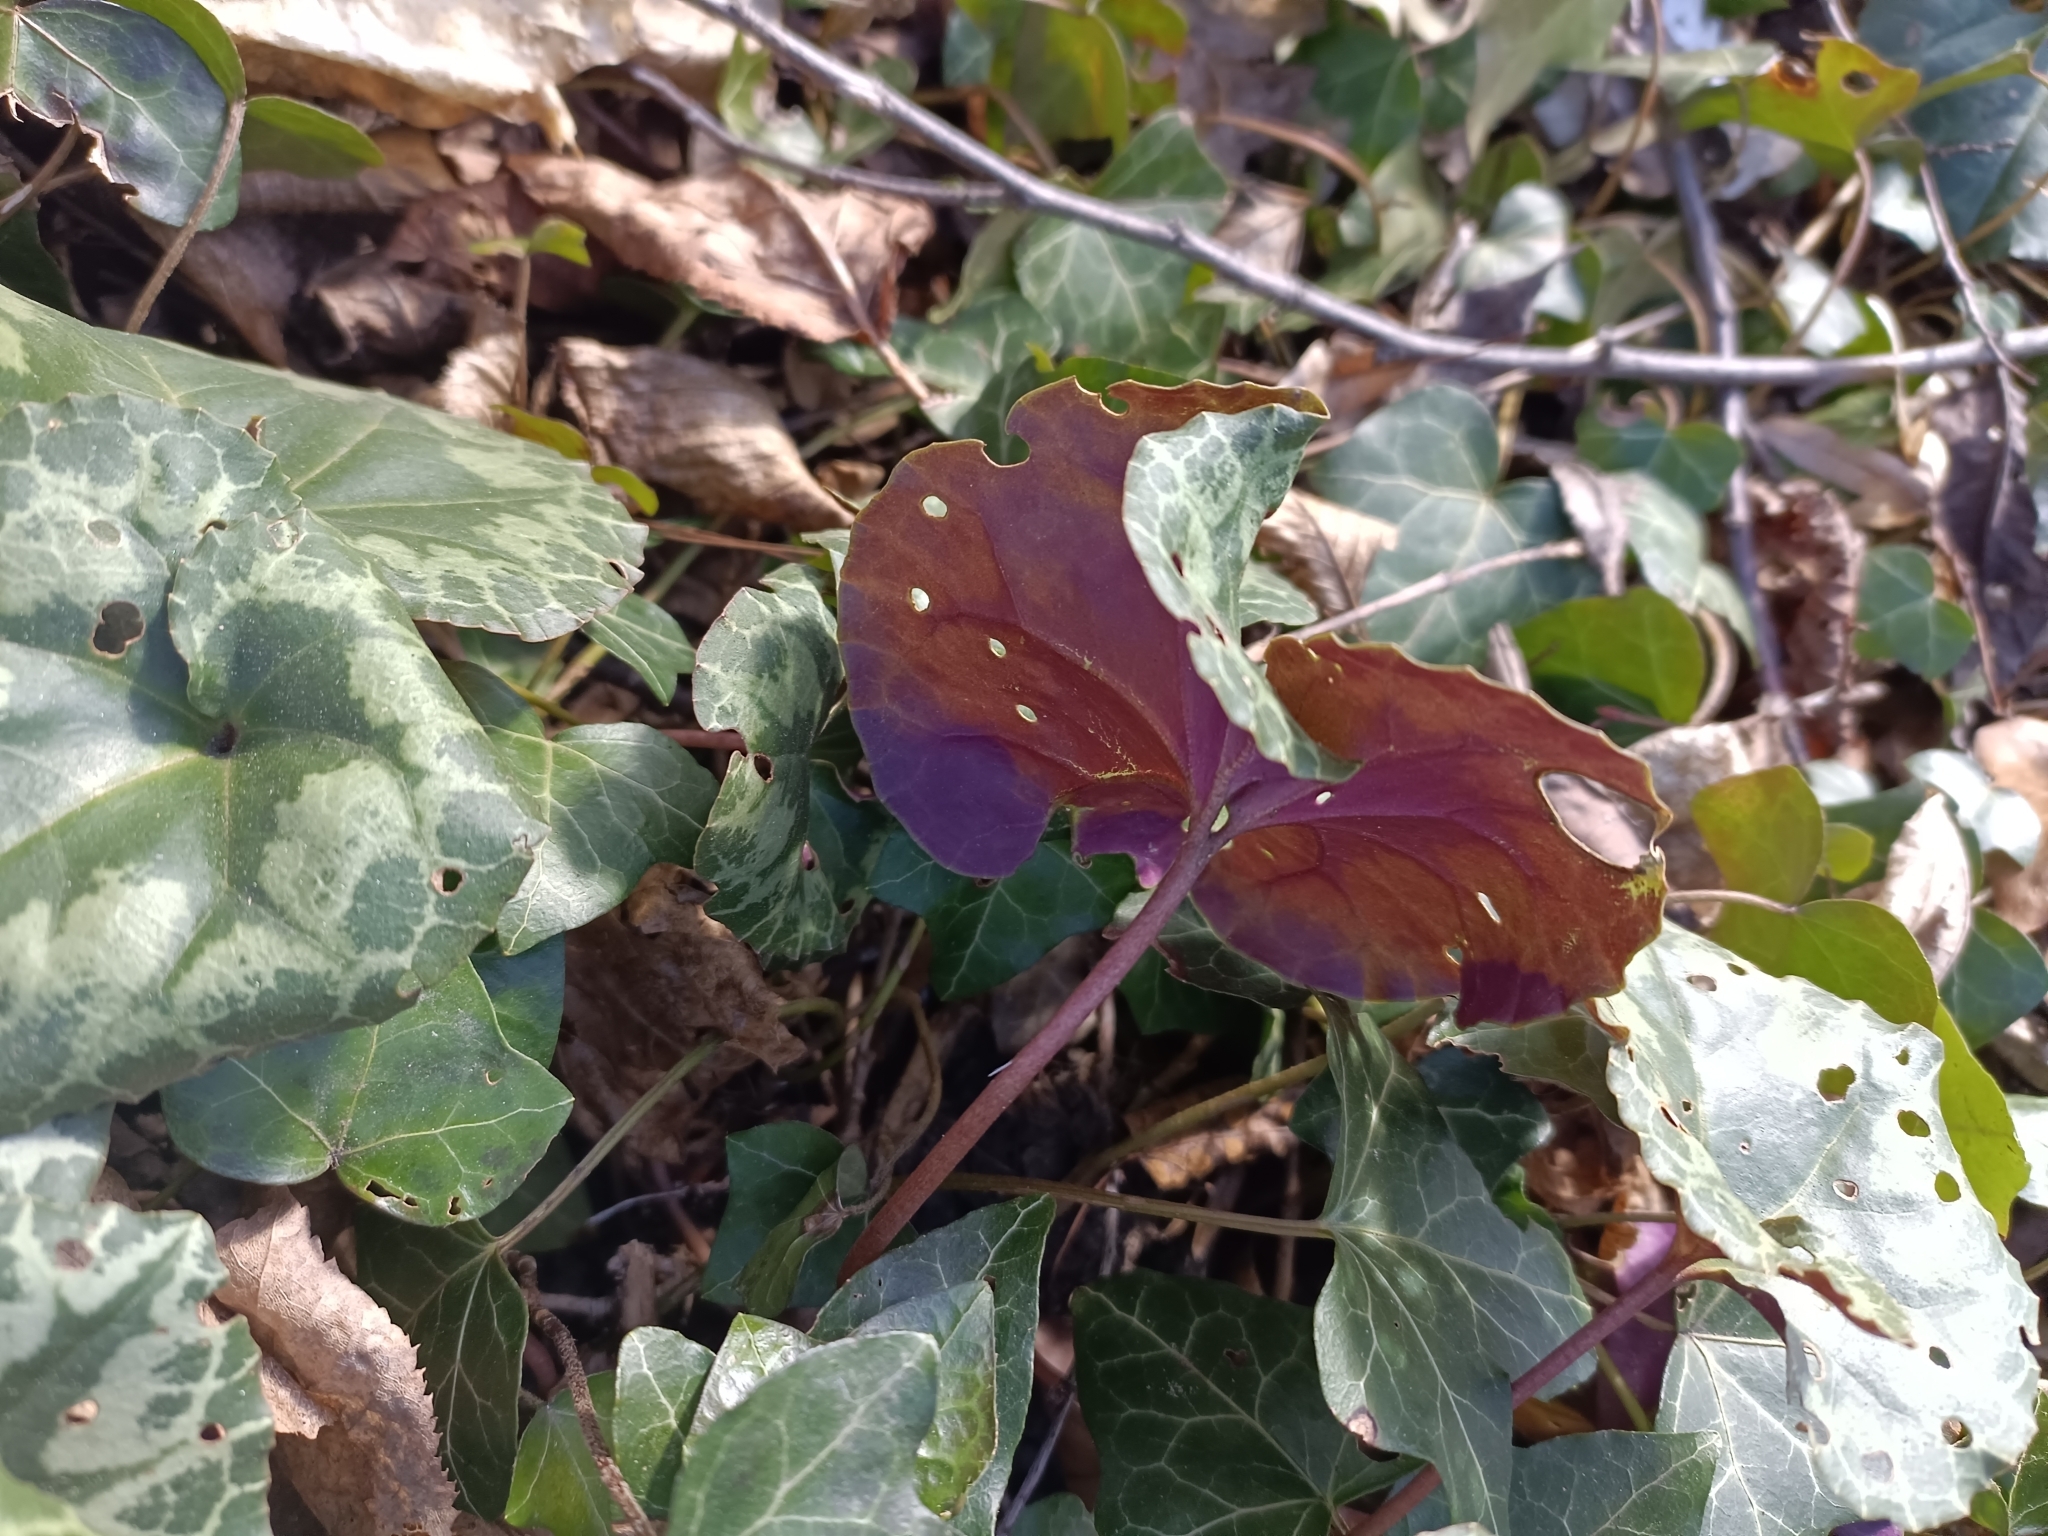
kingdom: Plantae
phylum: Tracheophyta
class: Magnoliopsida
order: Ericales
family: Primulaceae
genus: Cyclamen
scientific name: Cyclamen purpurascens
